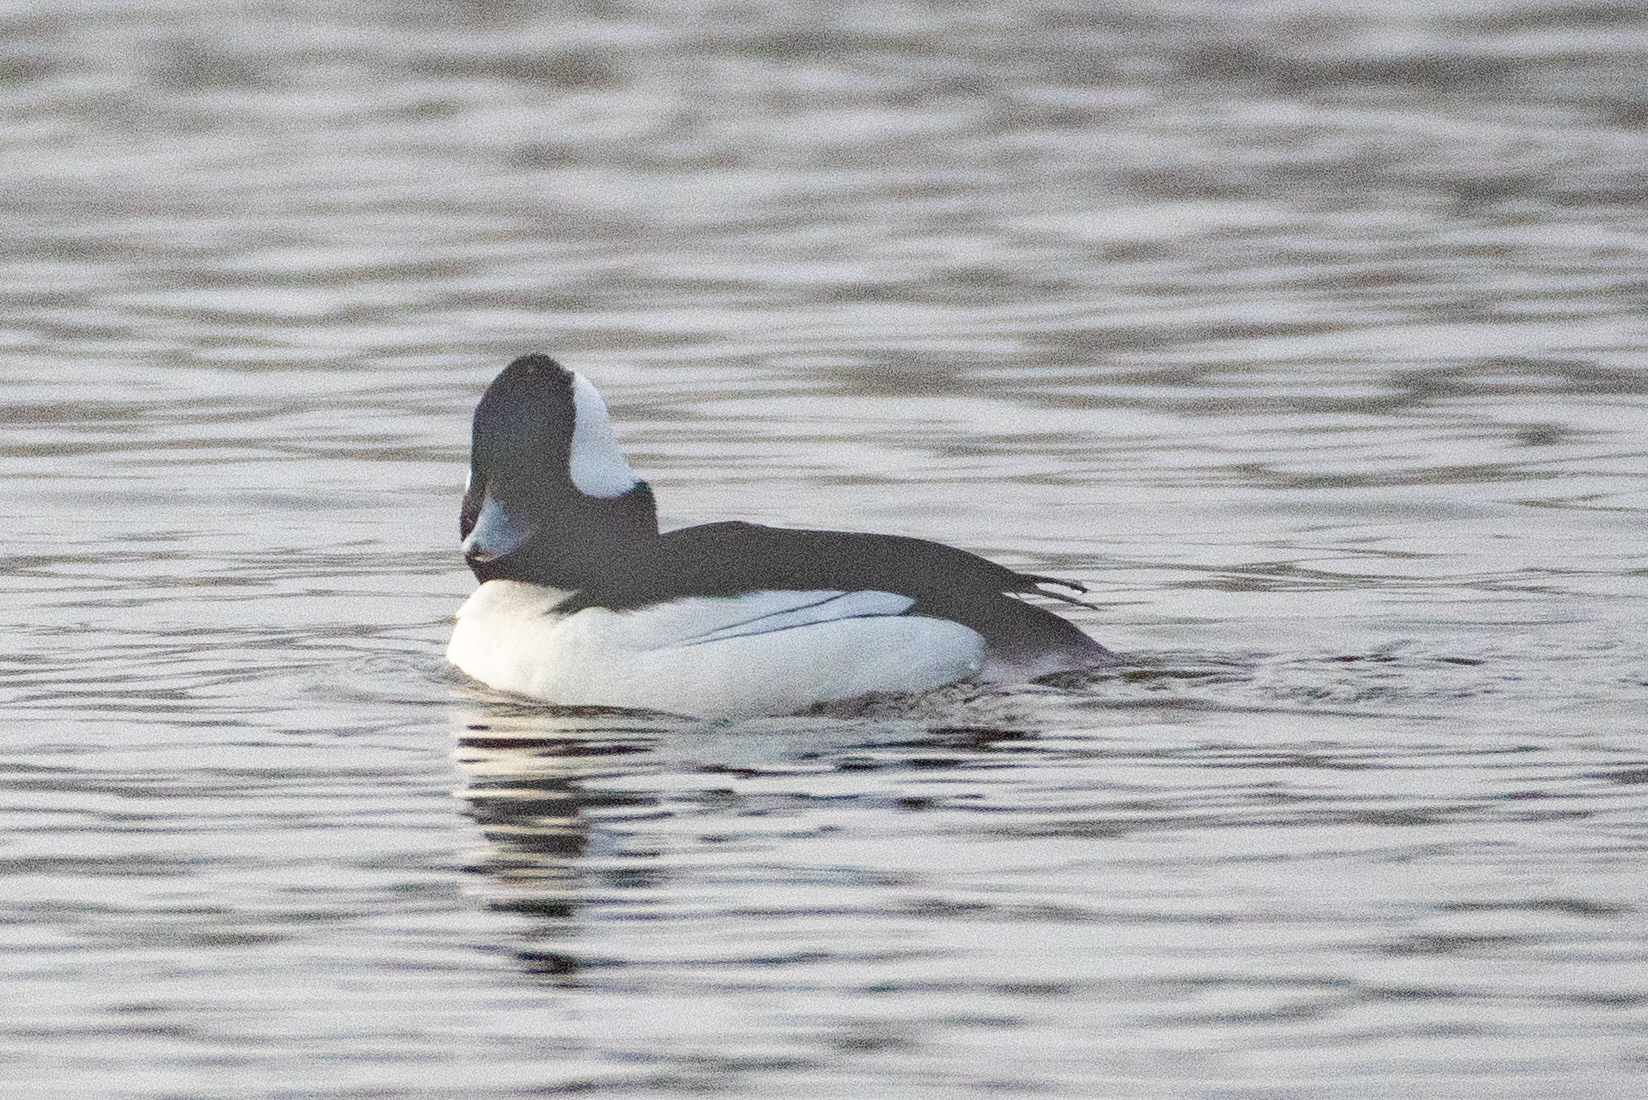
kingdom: Animalia
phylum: Chordata
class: Aves
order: Anseriformes
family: Anatidae
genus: Bucephala
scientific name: Bucephala albeola
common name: Bufflehead
